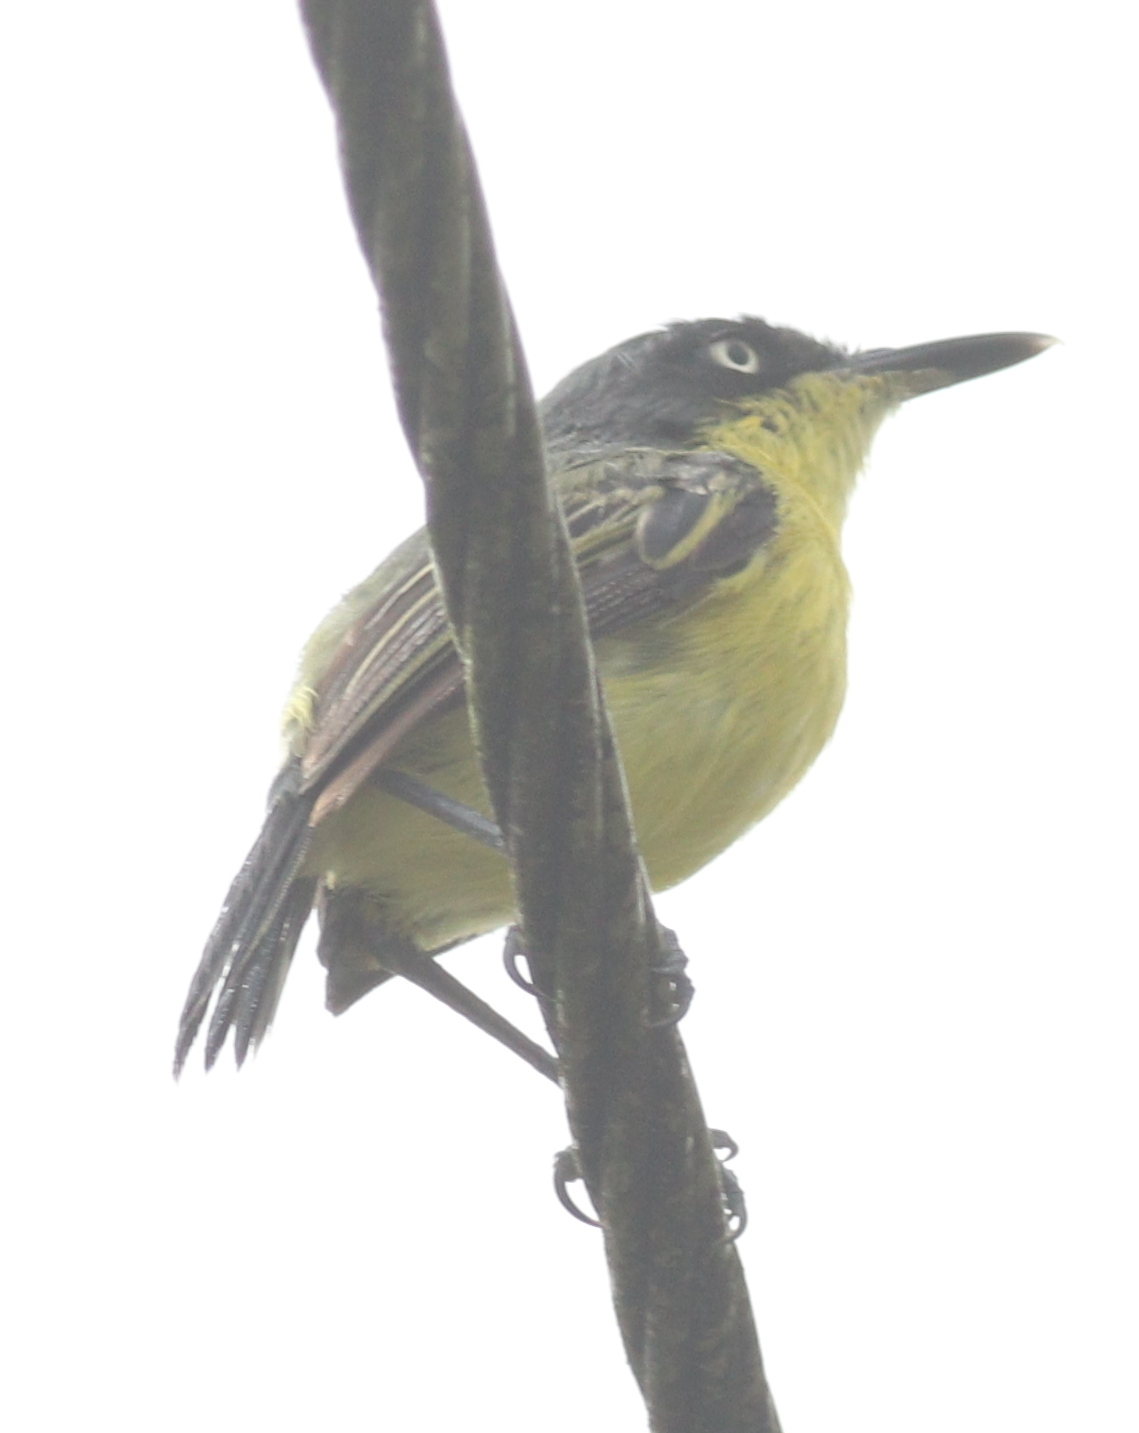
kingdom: Animalia
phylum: Chordata
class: Aves
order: Passeriformes
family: Tyrannidae
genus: Todirostrum
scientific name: Todirostrum cinereum
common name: Common tody-flycatcher
